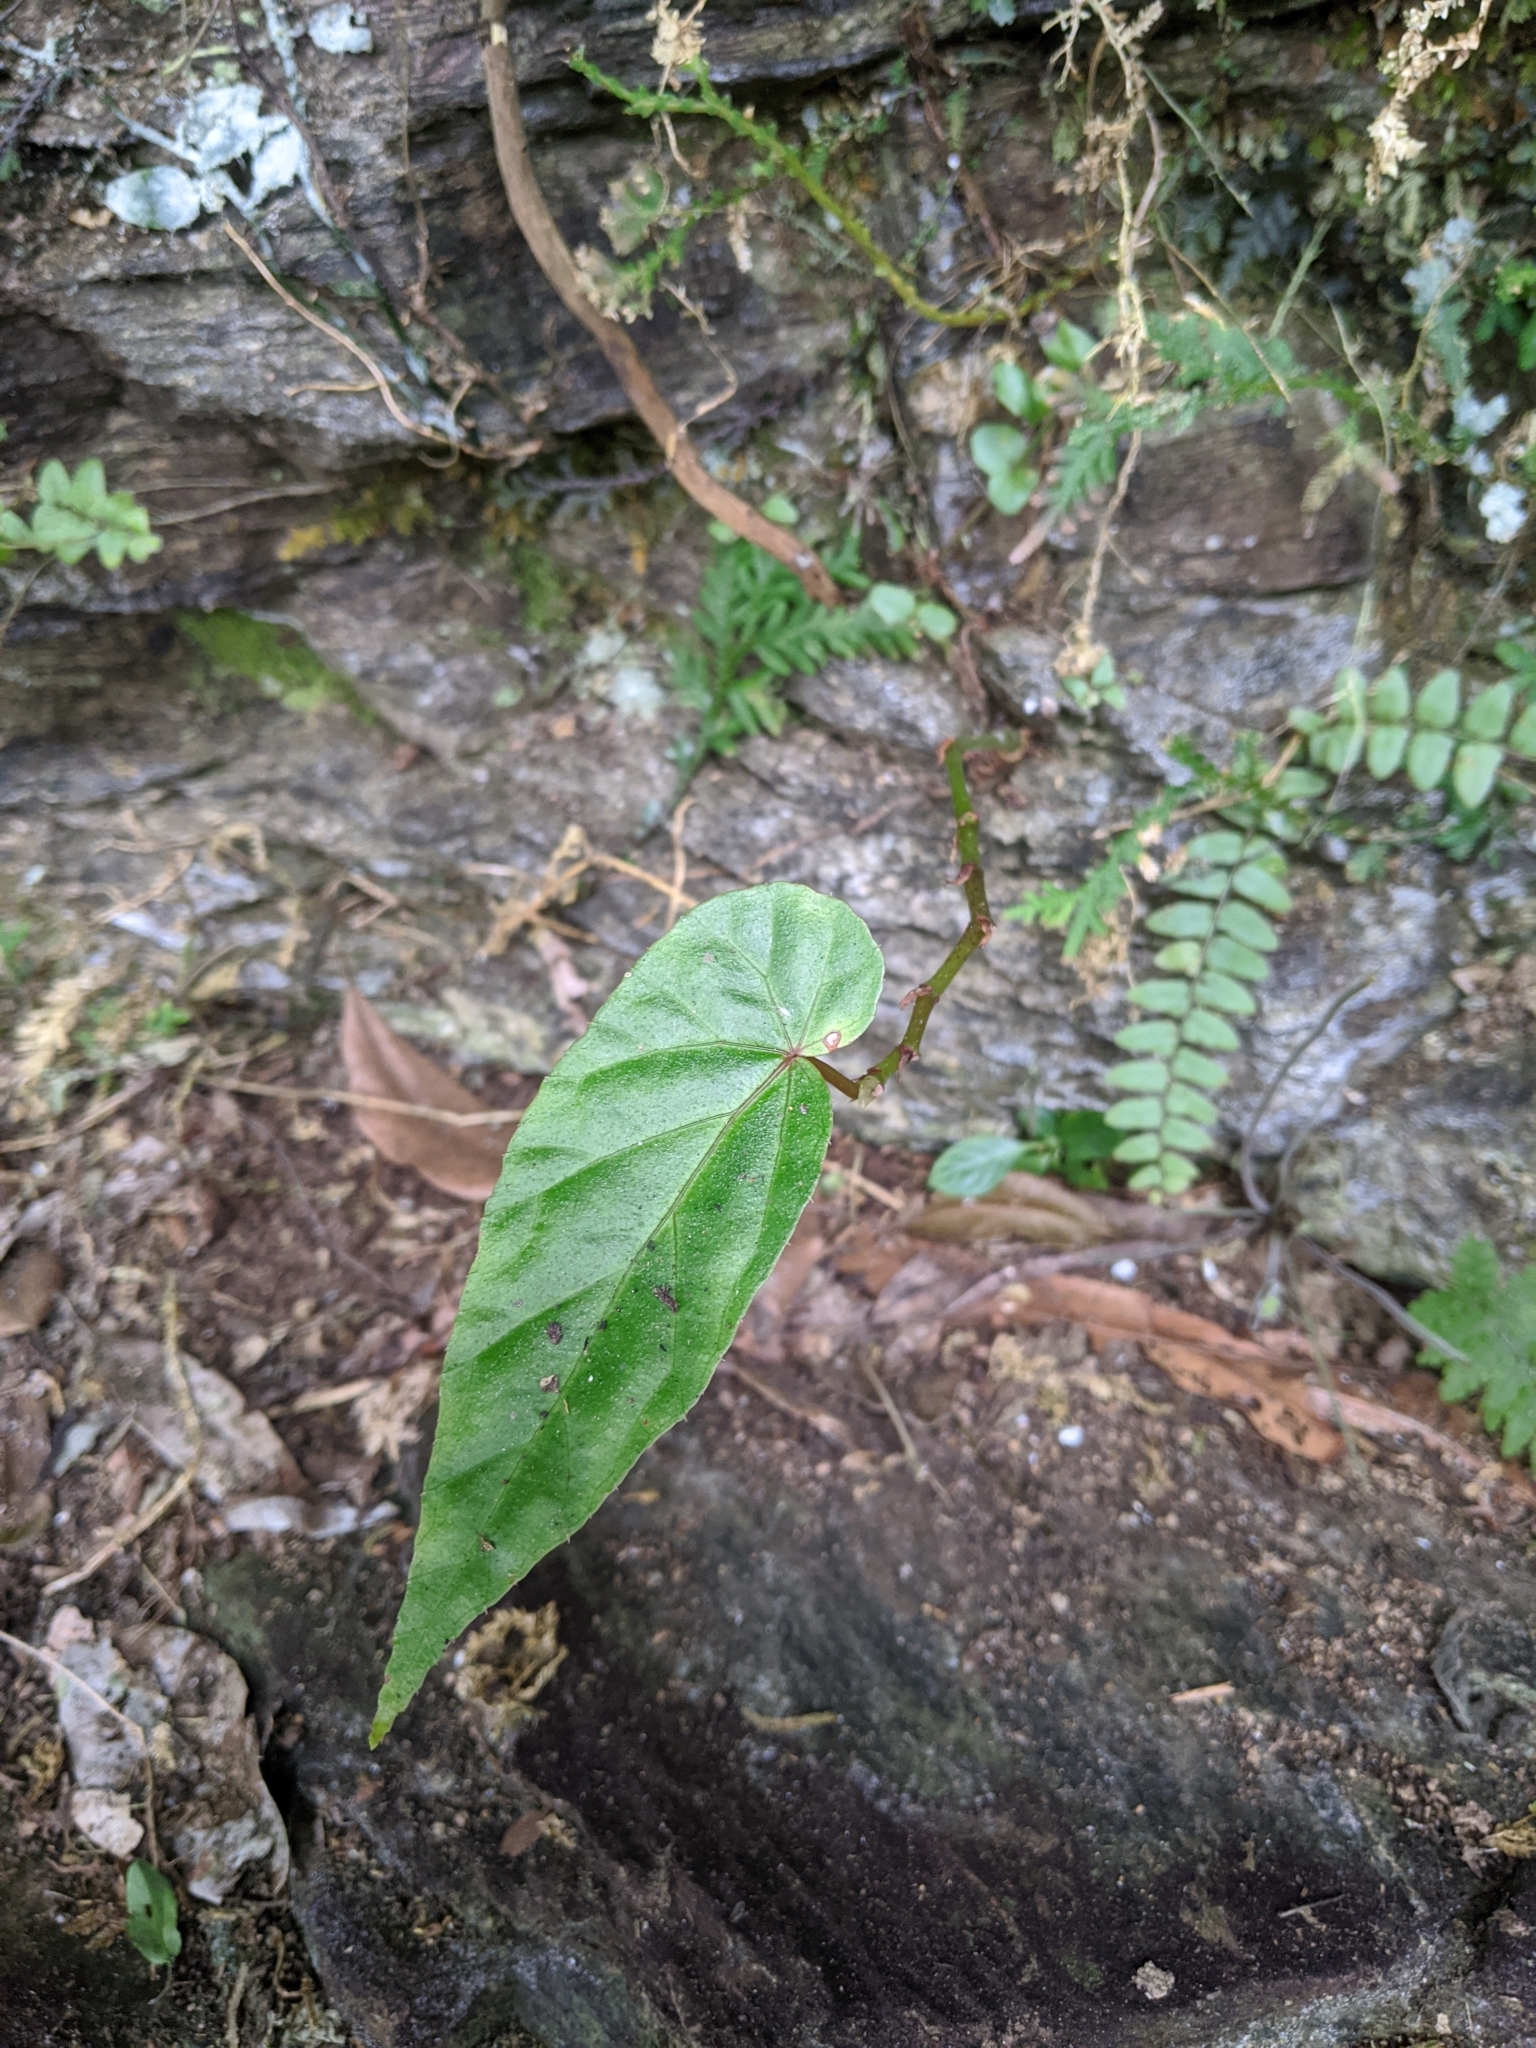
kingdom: Plantae
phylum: Tracheophyta
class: Magnoliopsida
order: Cucurbitales
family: Begoniaceae
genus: Begonia
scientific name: Begonia longifolia
